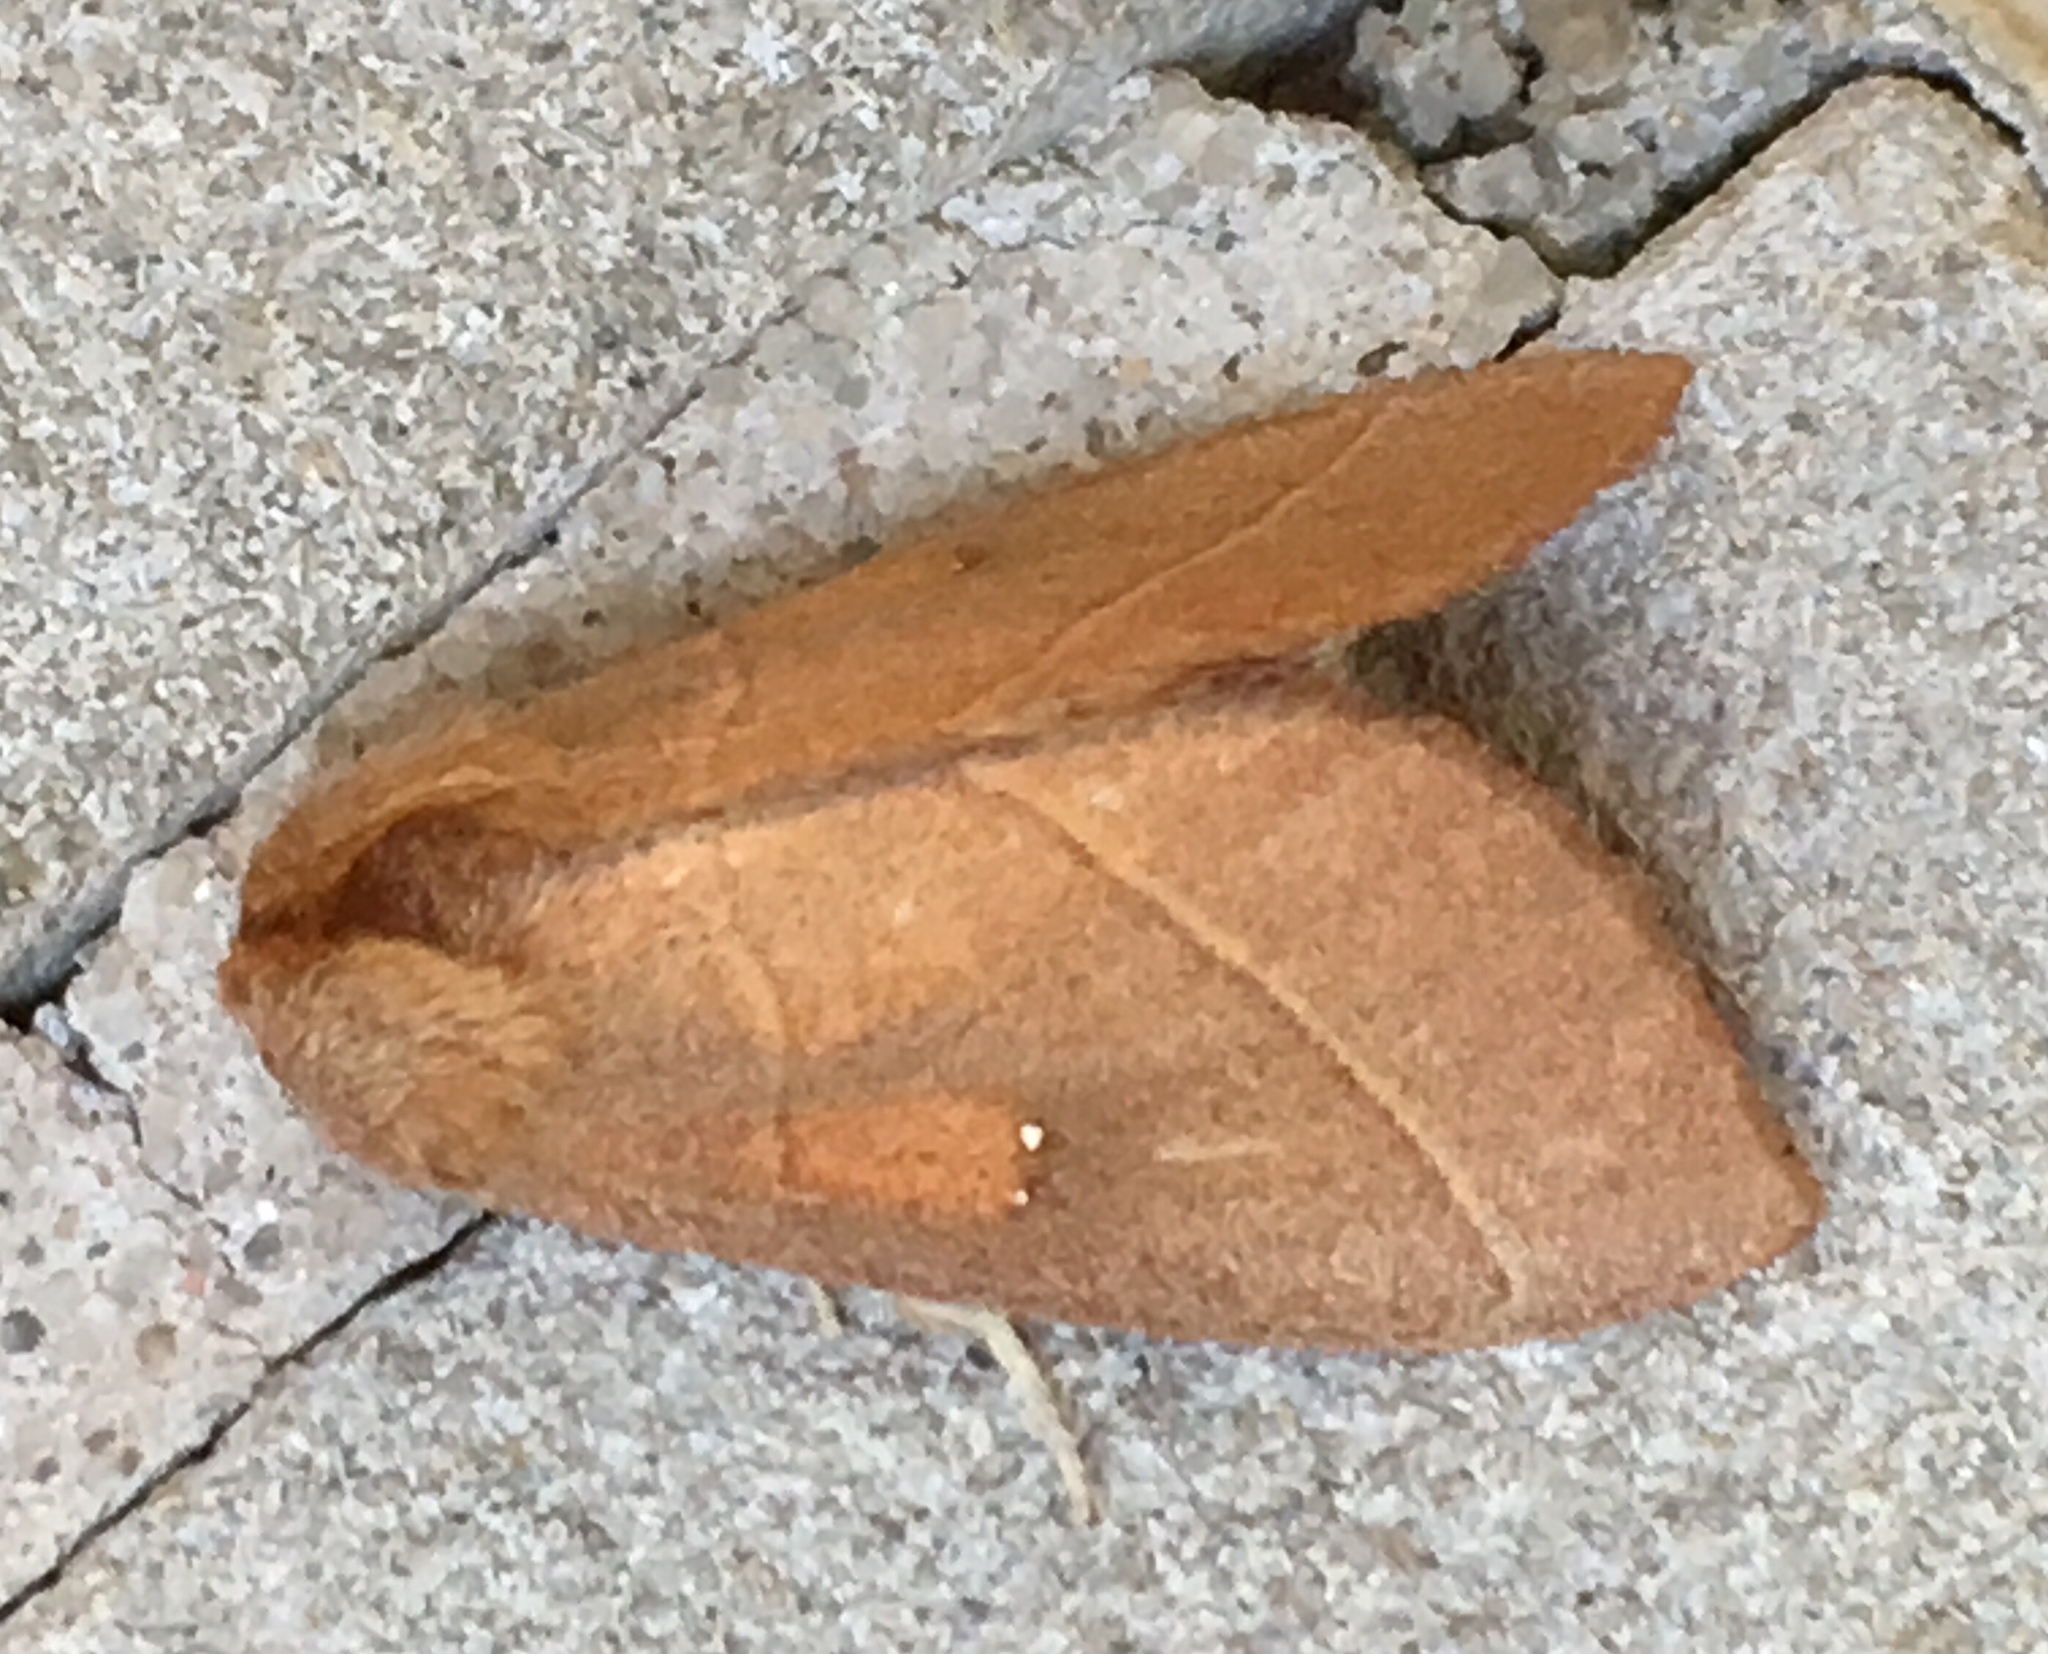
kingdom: Animalia
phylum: Arthropoda
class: Insecta
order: Lepidoptera
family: Notodontidae
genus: Nadata
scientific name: Nadata gibbosa
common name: White-dotted prominent
